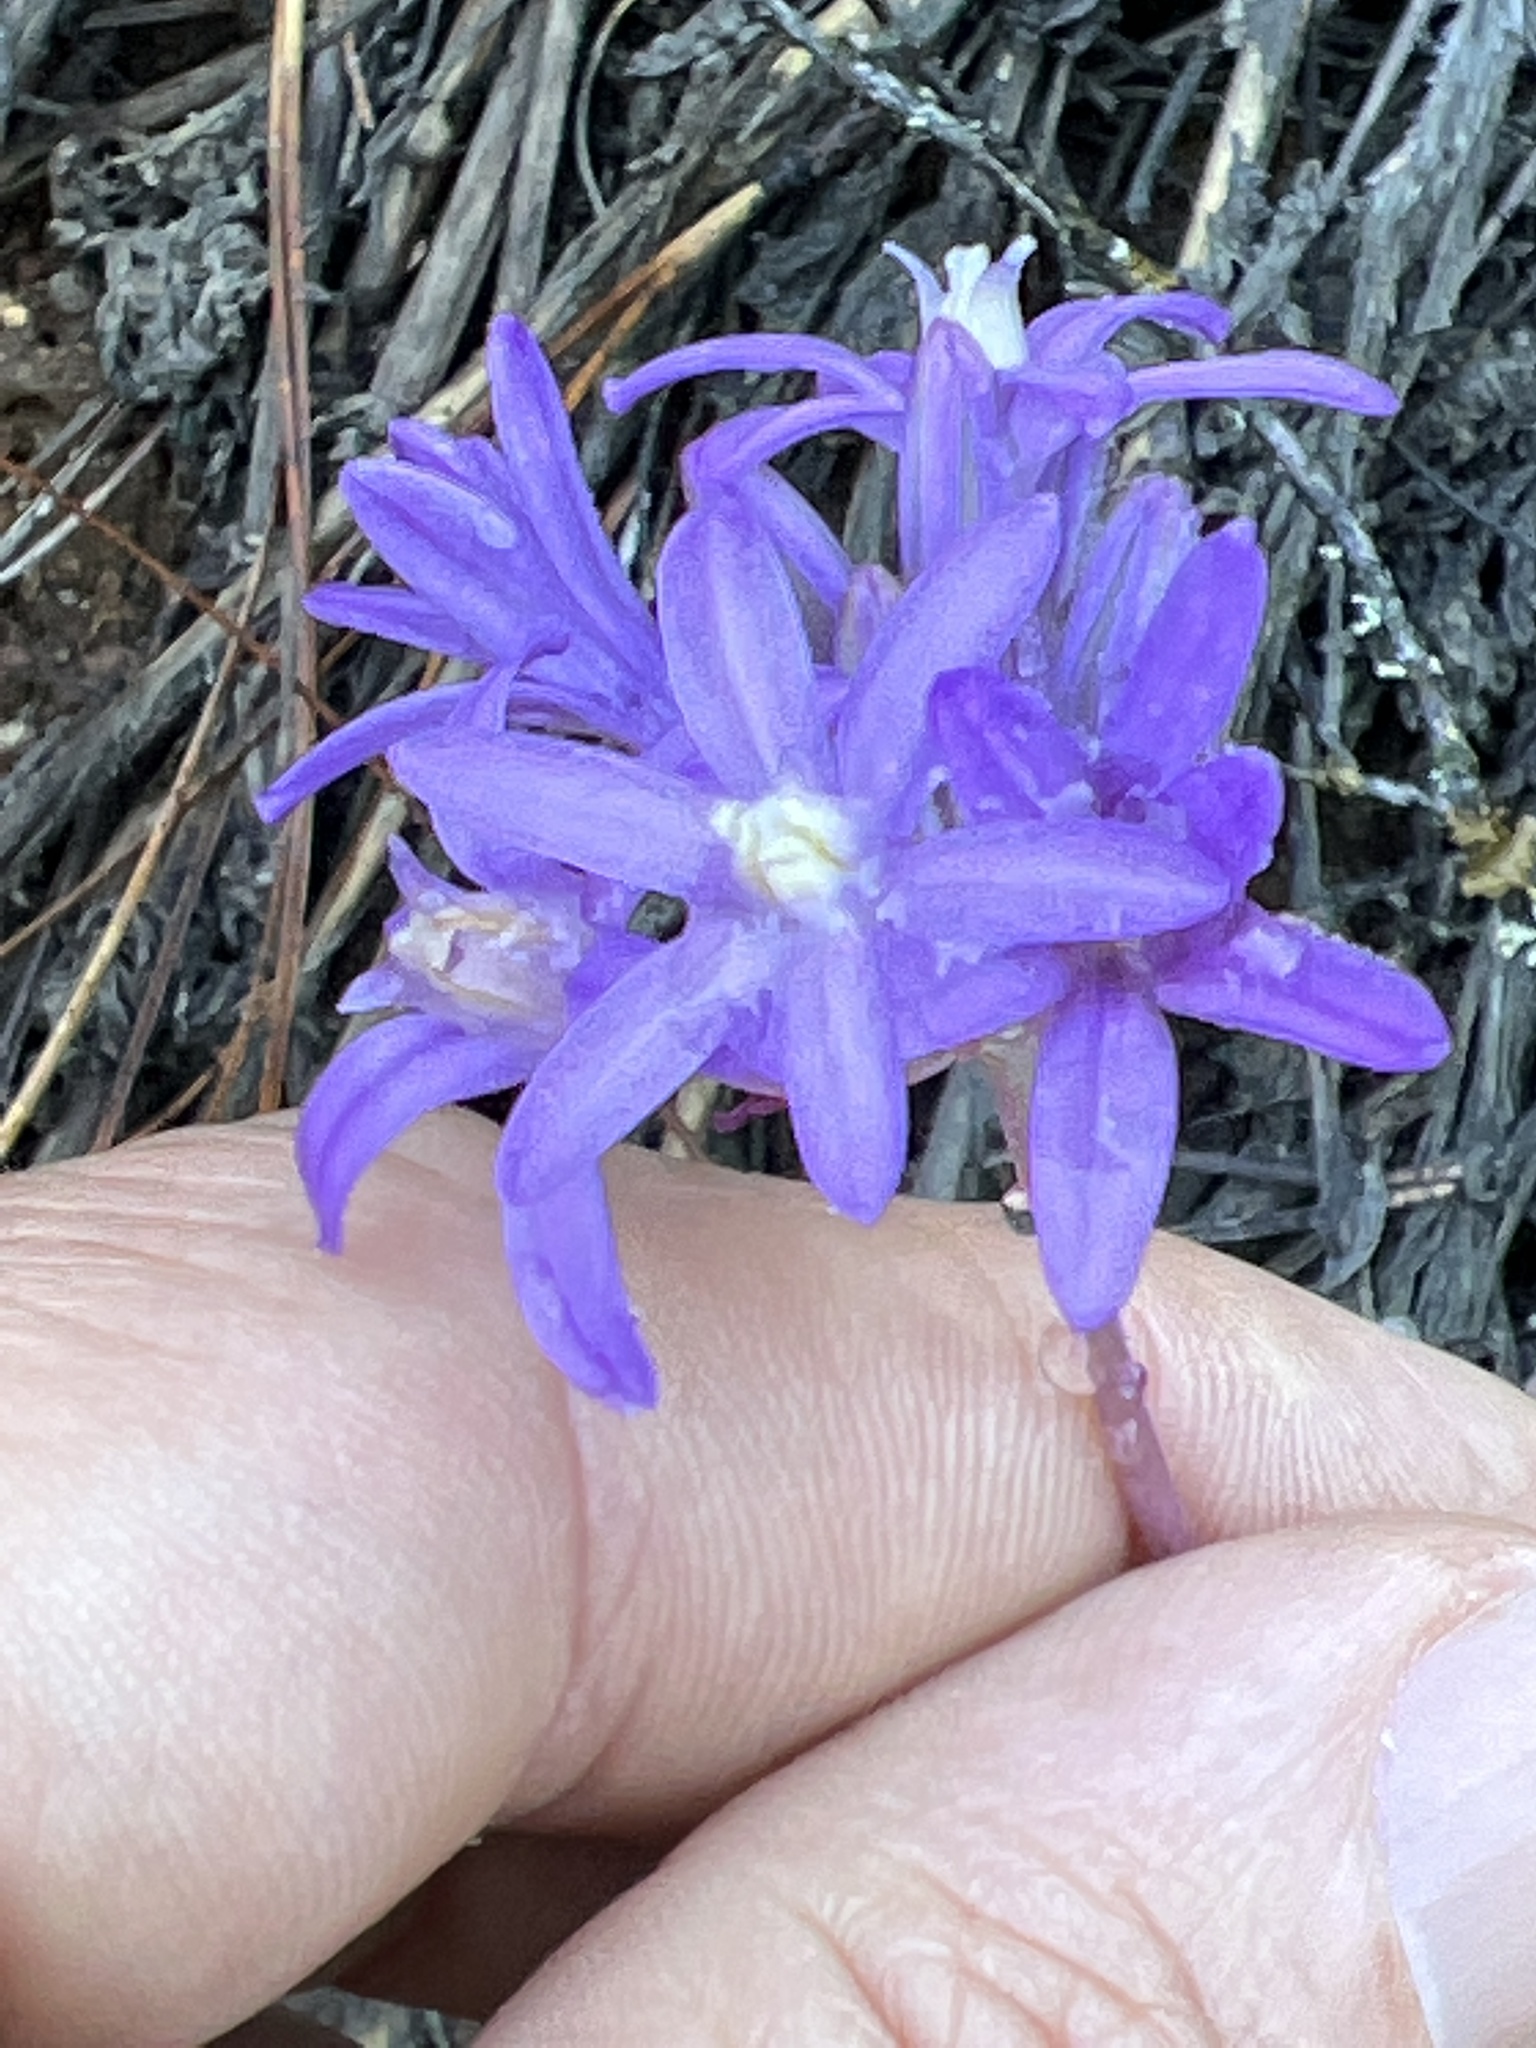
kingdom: Plantae
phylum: Tracheophyta
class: Liliopsida
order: Asparagales
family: Asparagaceae
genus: Dichelostemma
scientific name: Dichelostemma multiflorum
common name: Round-tooth ookow
